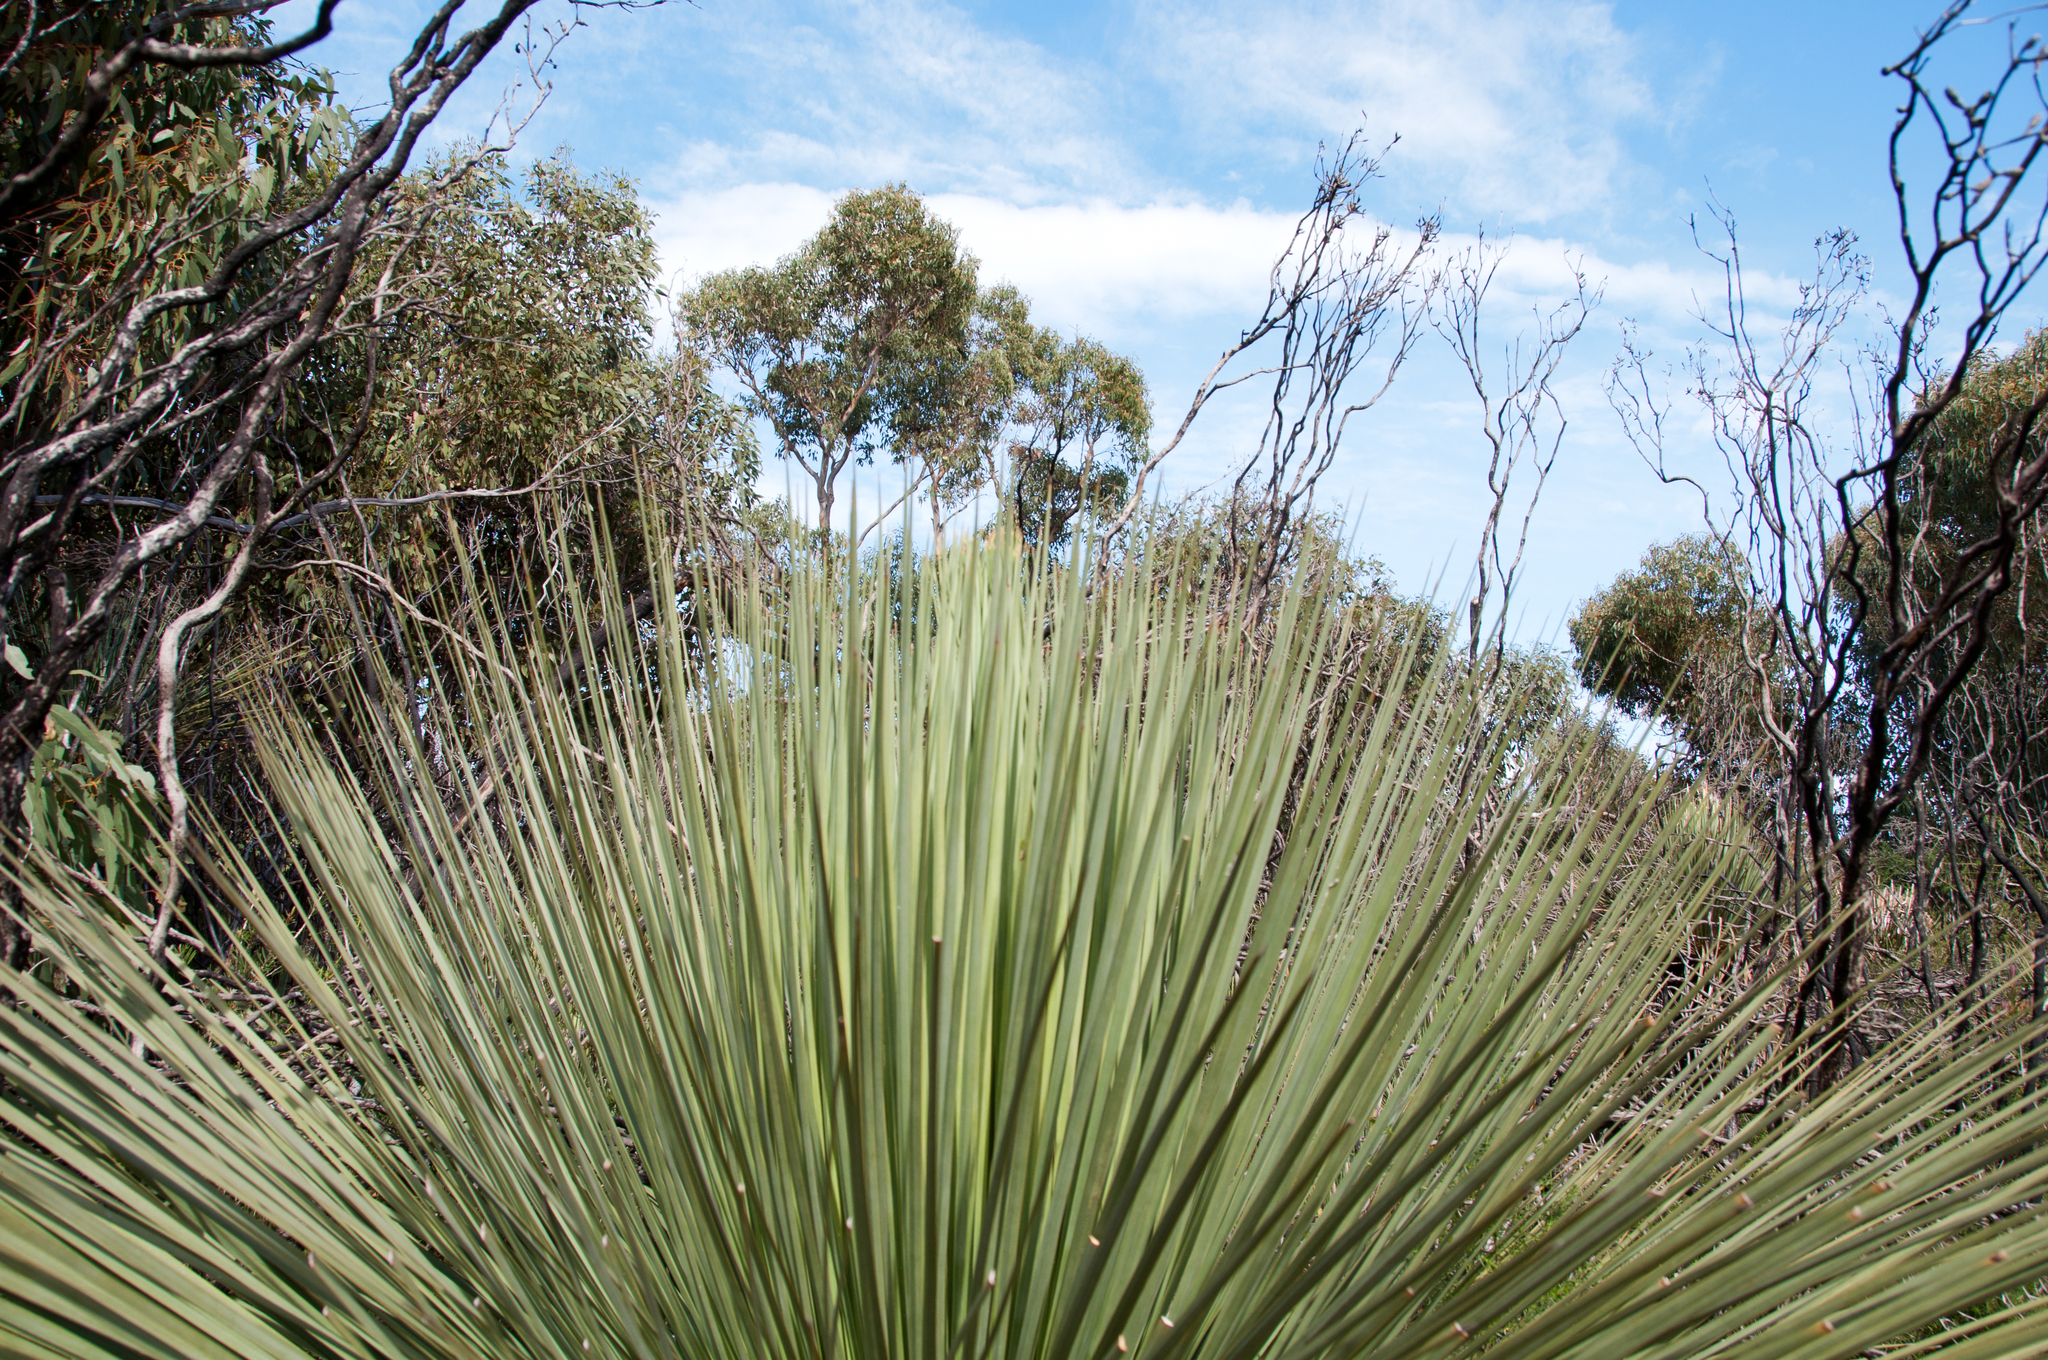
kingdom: Plantae
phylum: Tracheophyta
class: Liliopsida
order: Asparagales
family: Asphodelaceae
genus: Xanthorrhoea
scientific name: Xanthorrhoea semiplana
